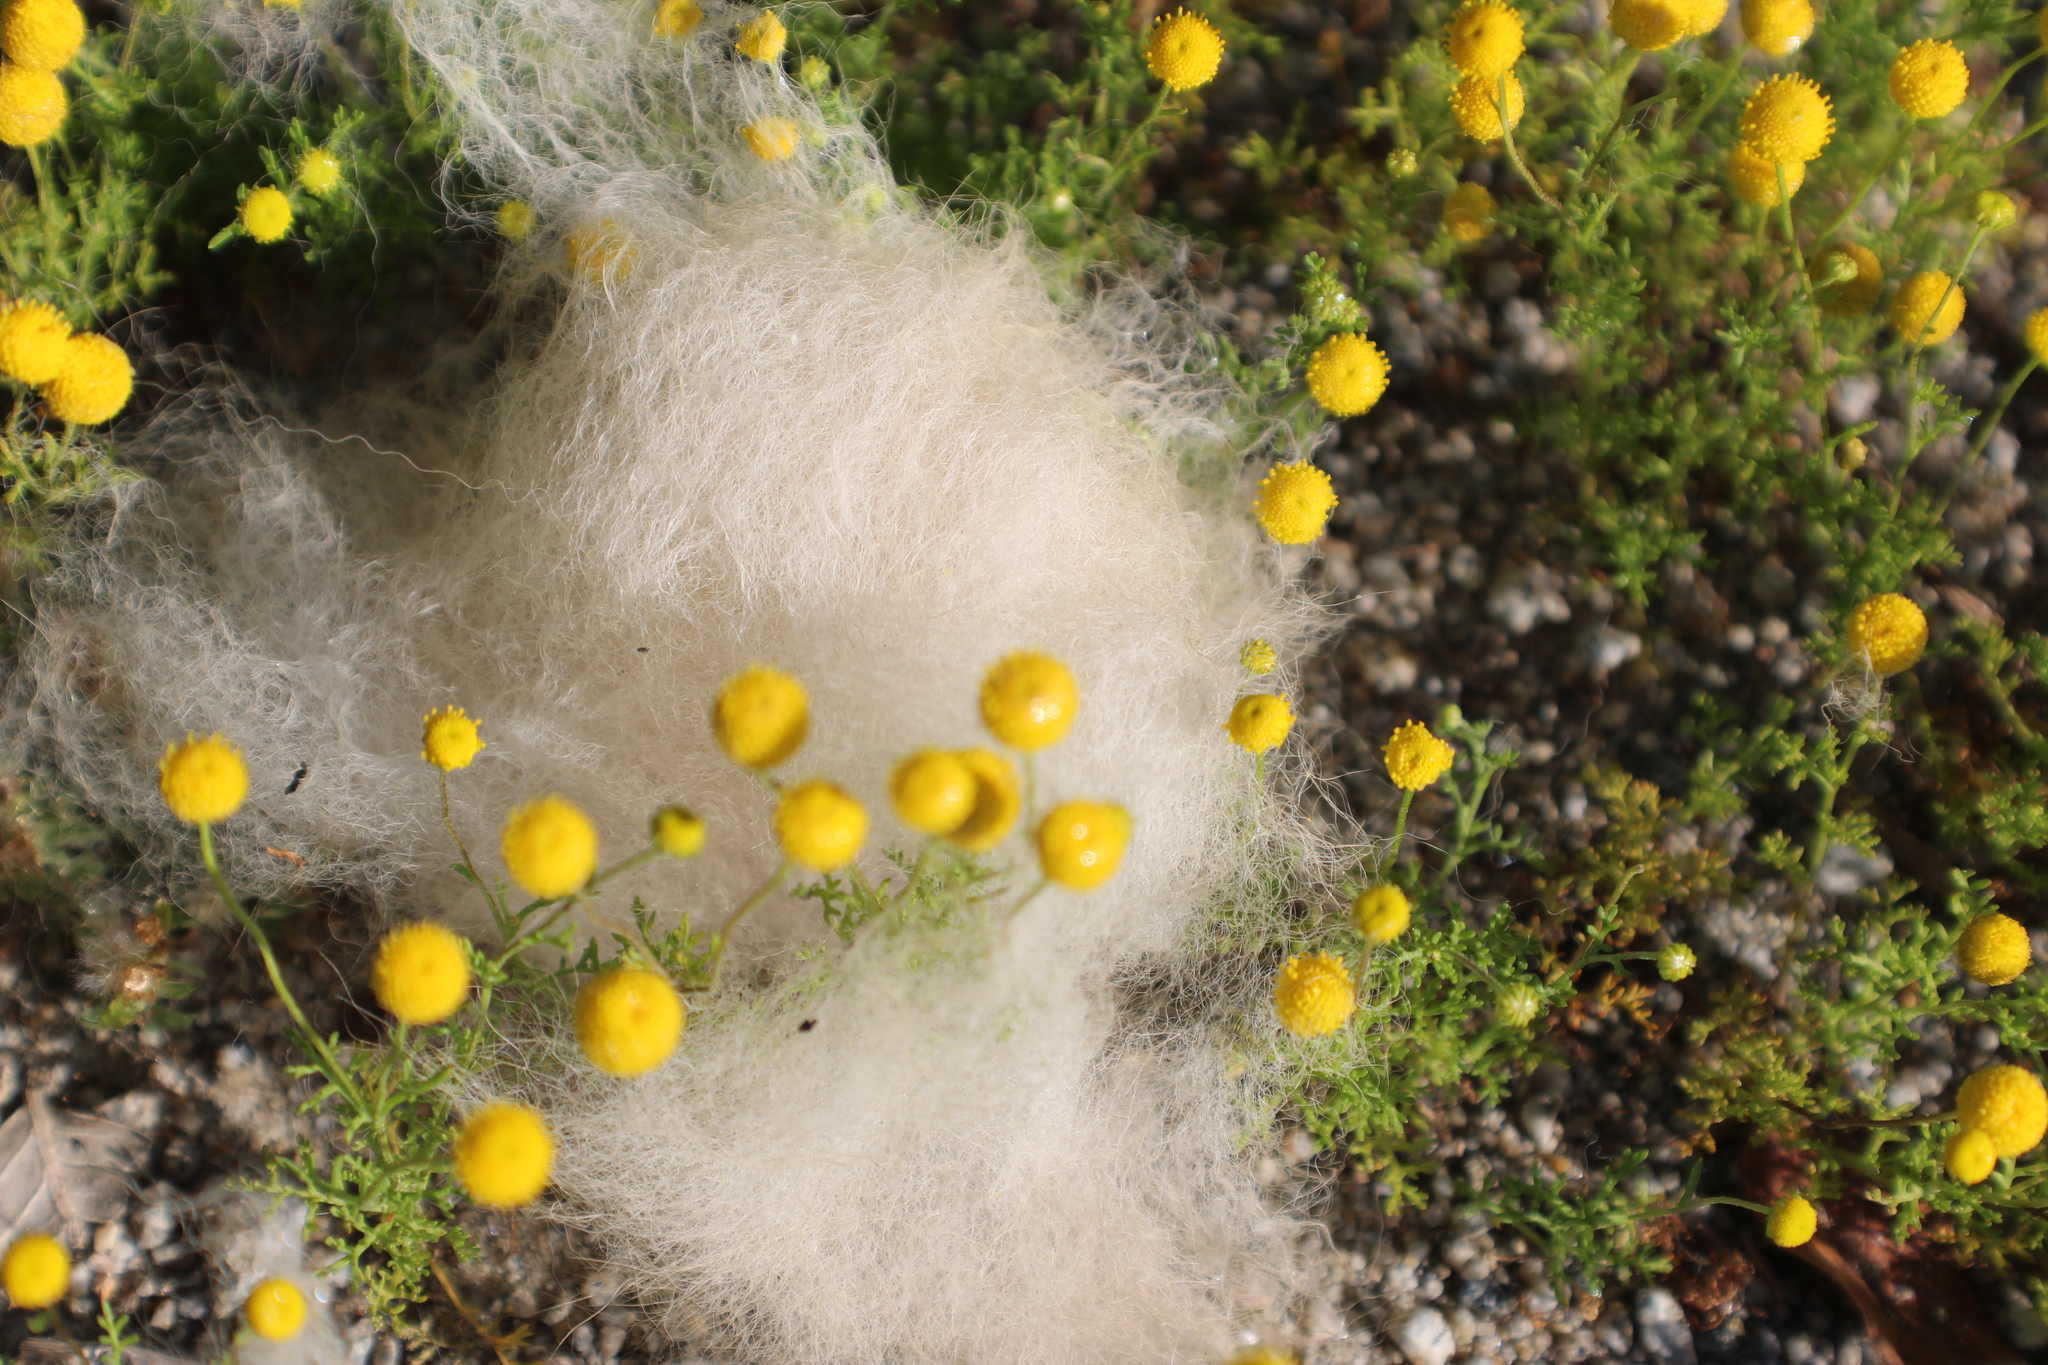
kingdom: Plantae
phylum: Tracheophyta
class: Magnoliopsida
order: Asterales
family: Asteraceae
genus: Oncosiphon
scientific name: Oncosiphon pilulifer
